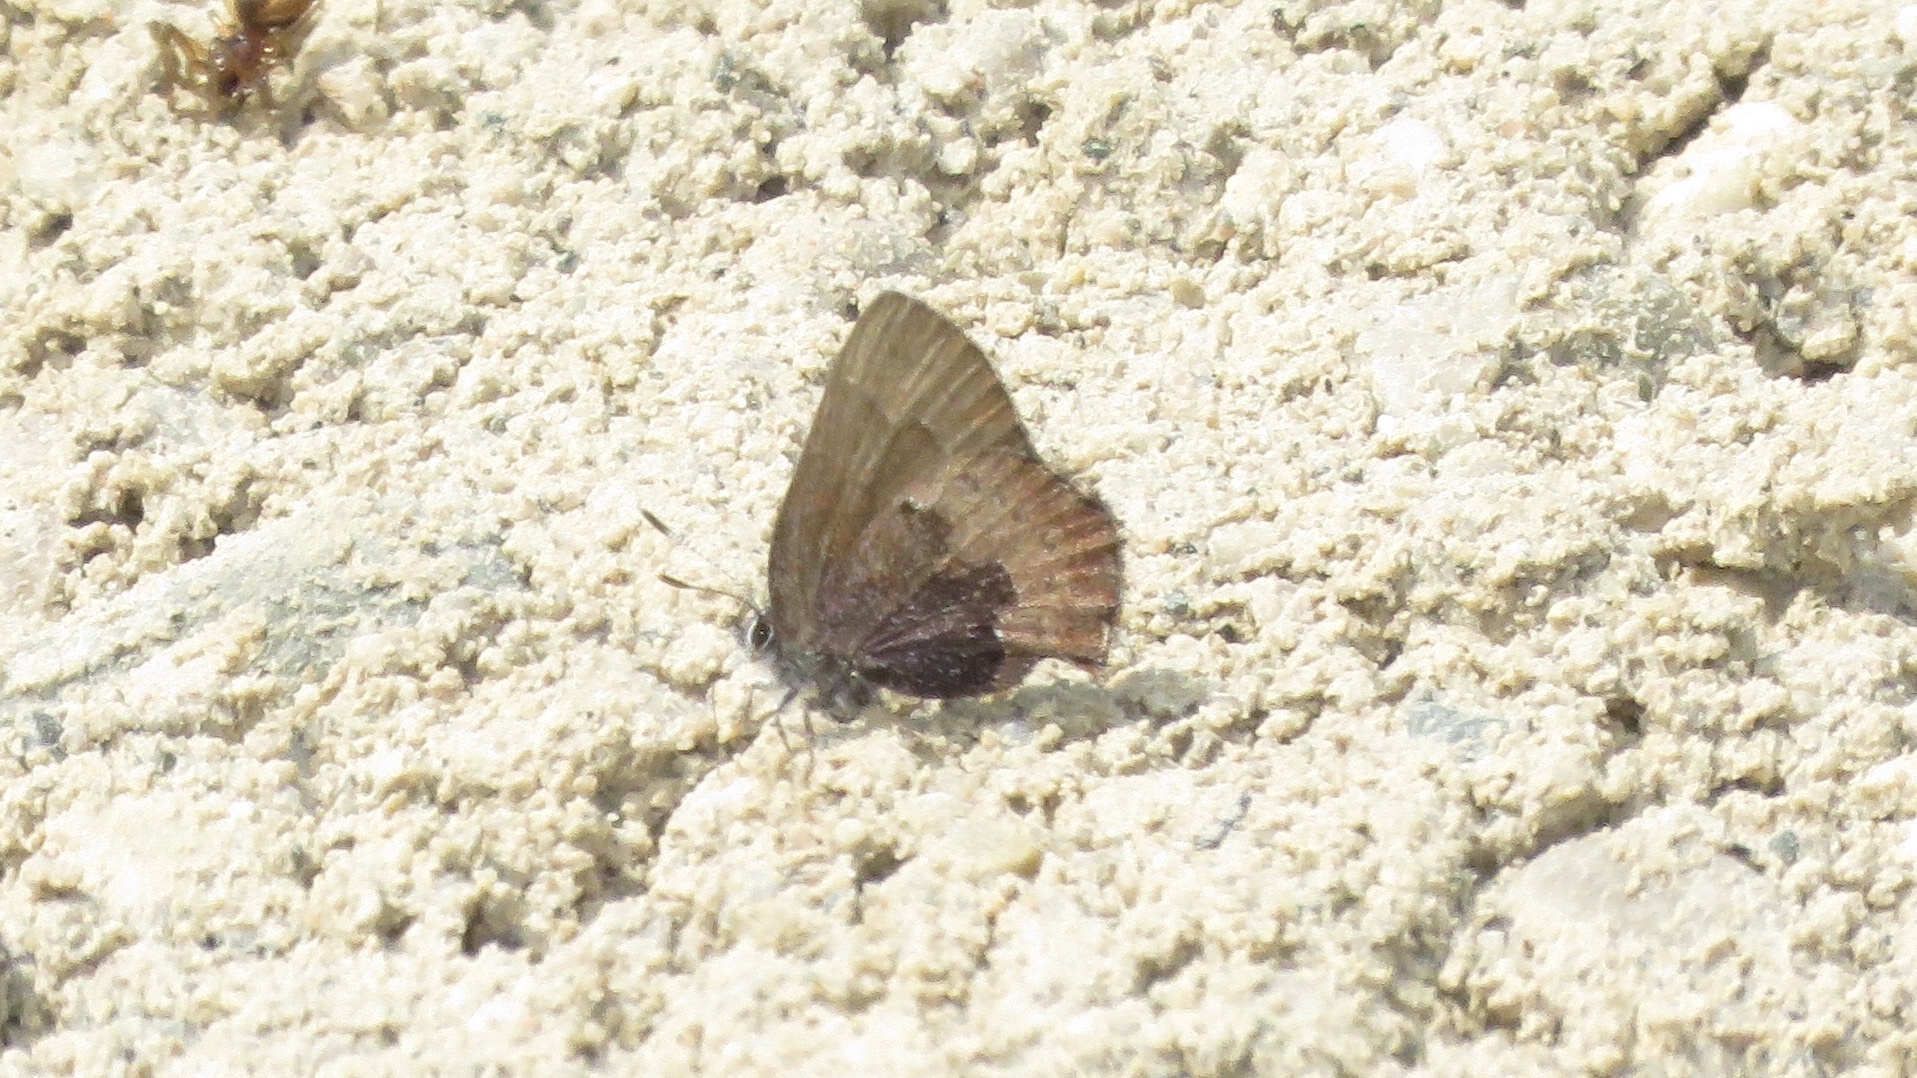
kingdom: Animalia
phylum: Arthropoda
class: Insecta
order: Lepidoptera
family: Lycaenidae
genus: Incisalia
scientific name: Incisalia irioides
